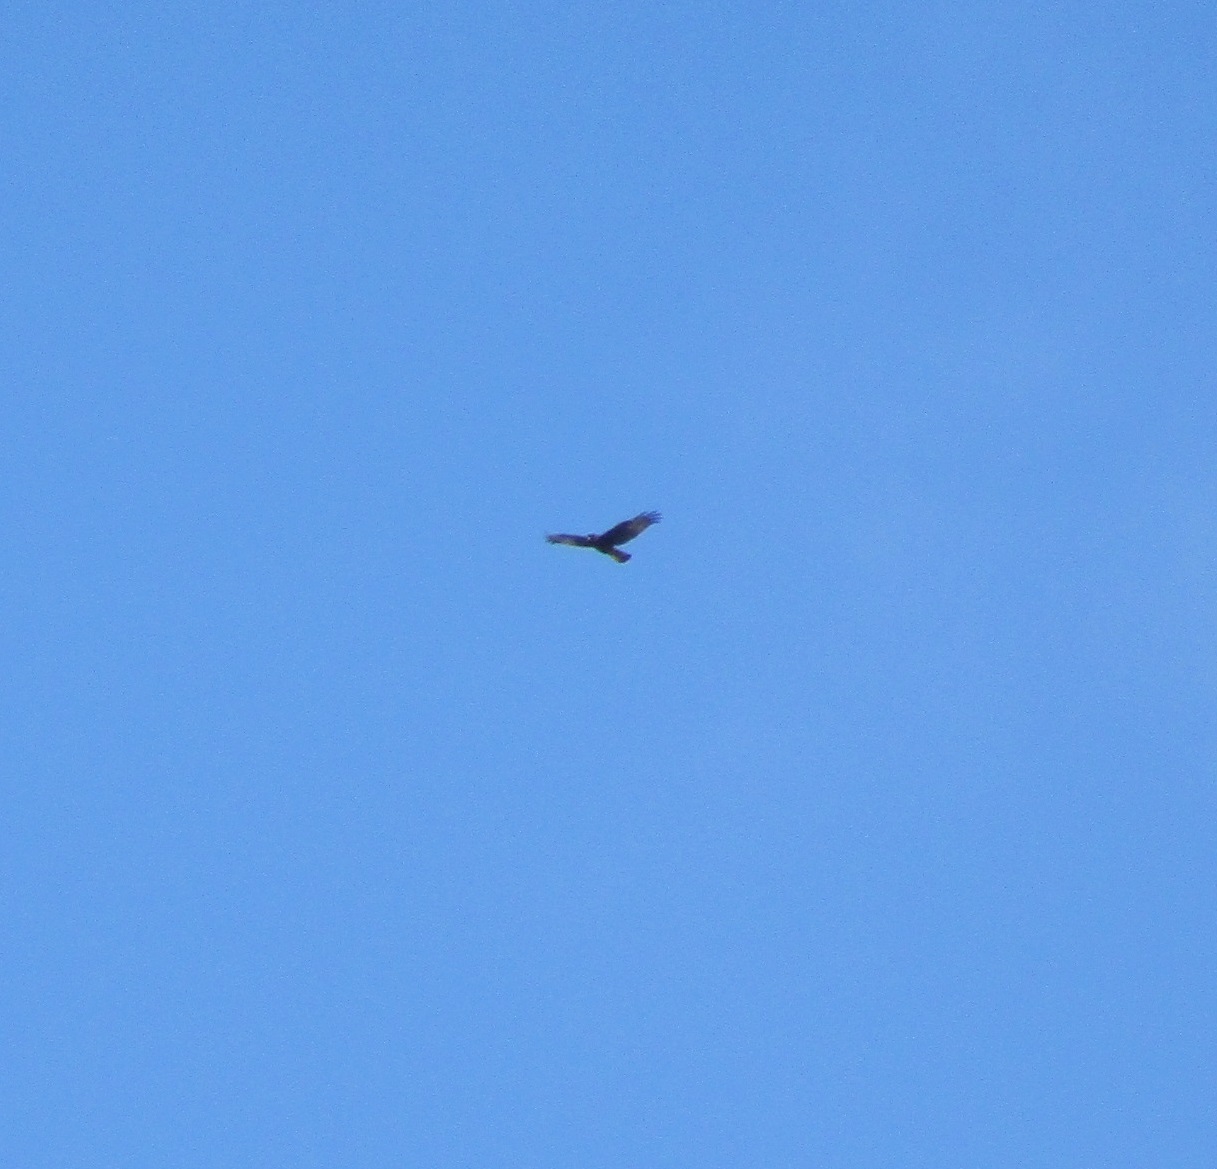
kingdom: Animalia
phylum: Chordata
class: Aves
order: Accipitriformes
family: Accipitridae
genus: Circus
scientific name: Circus approximans
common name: Swamp harrier
